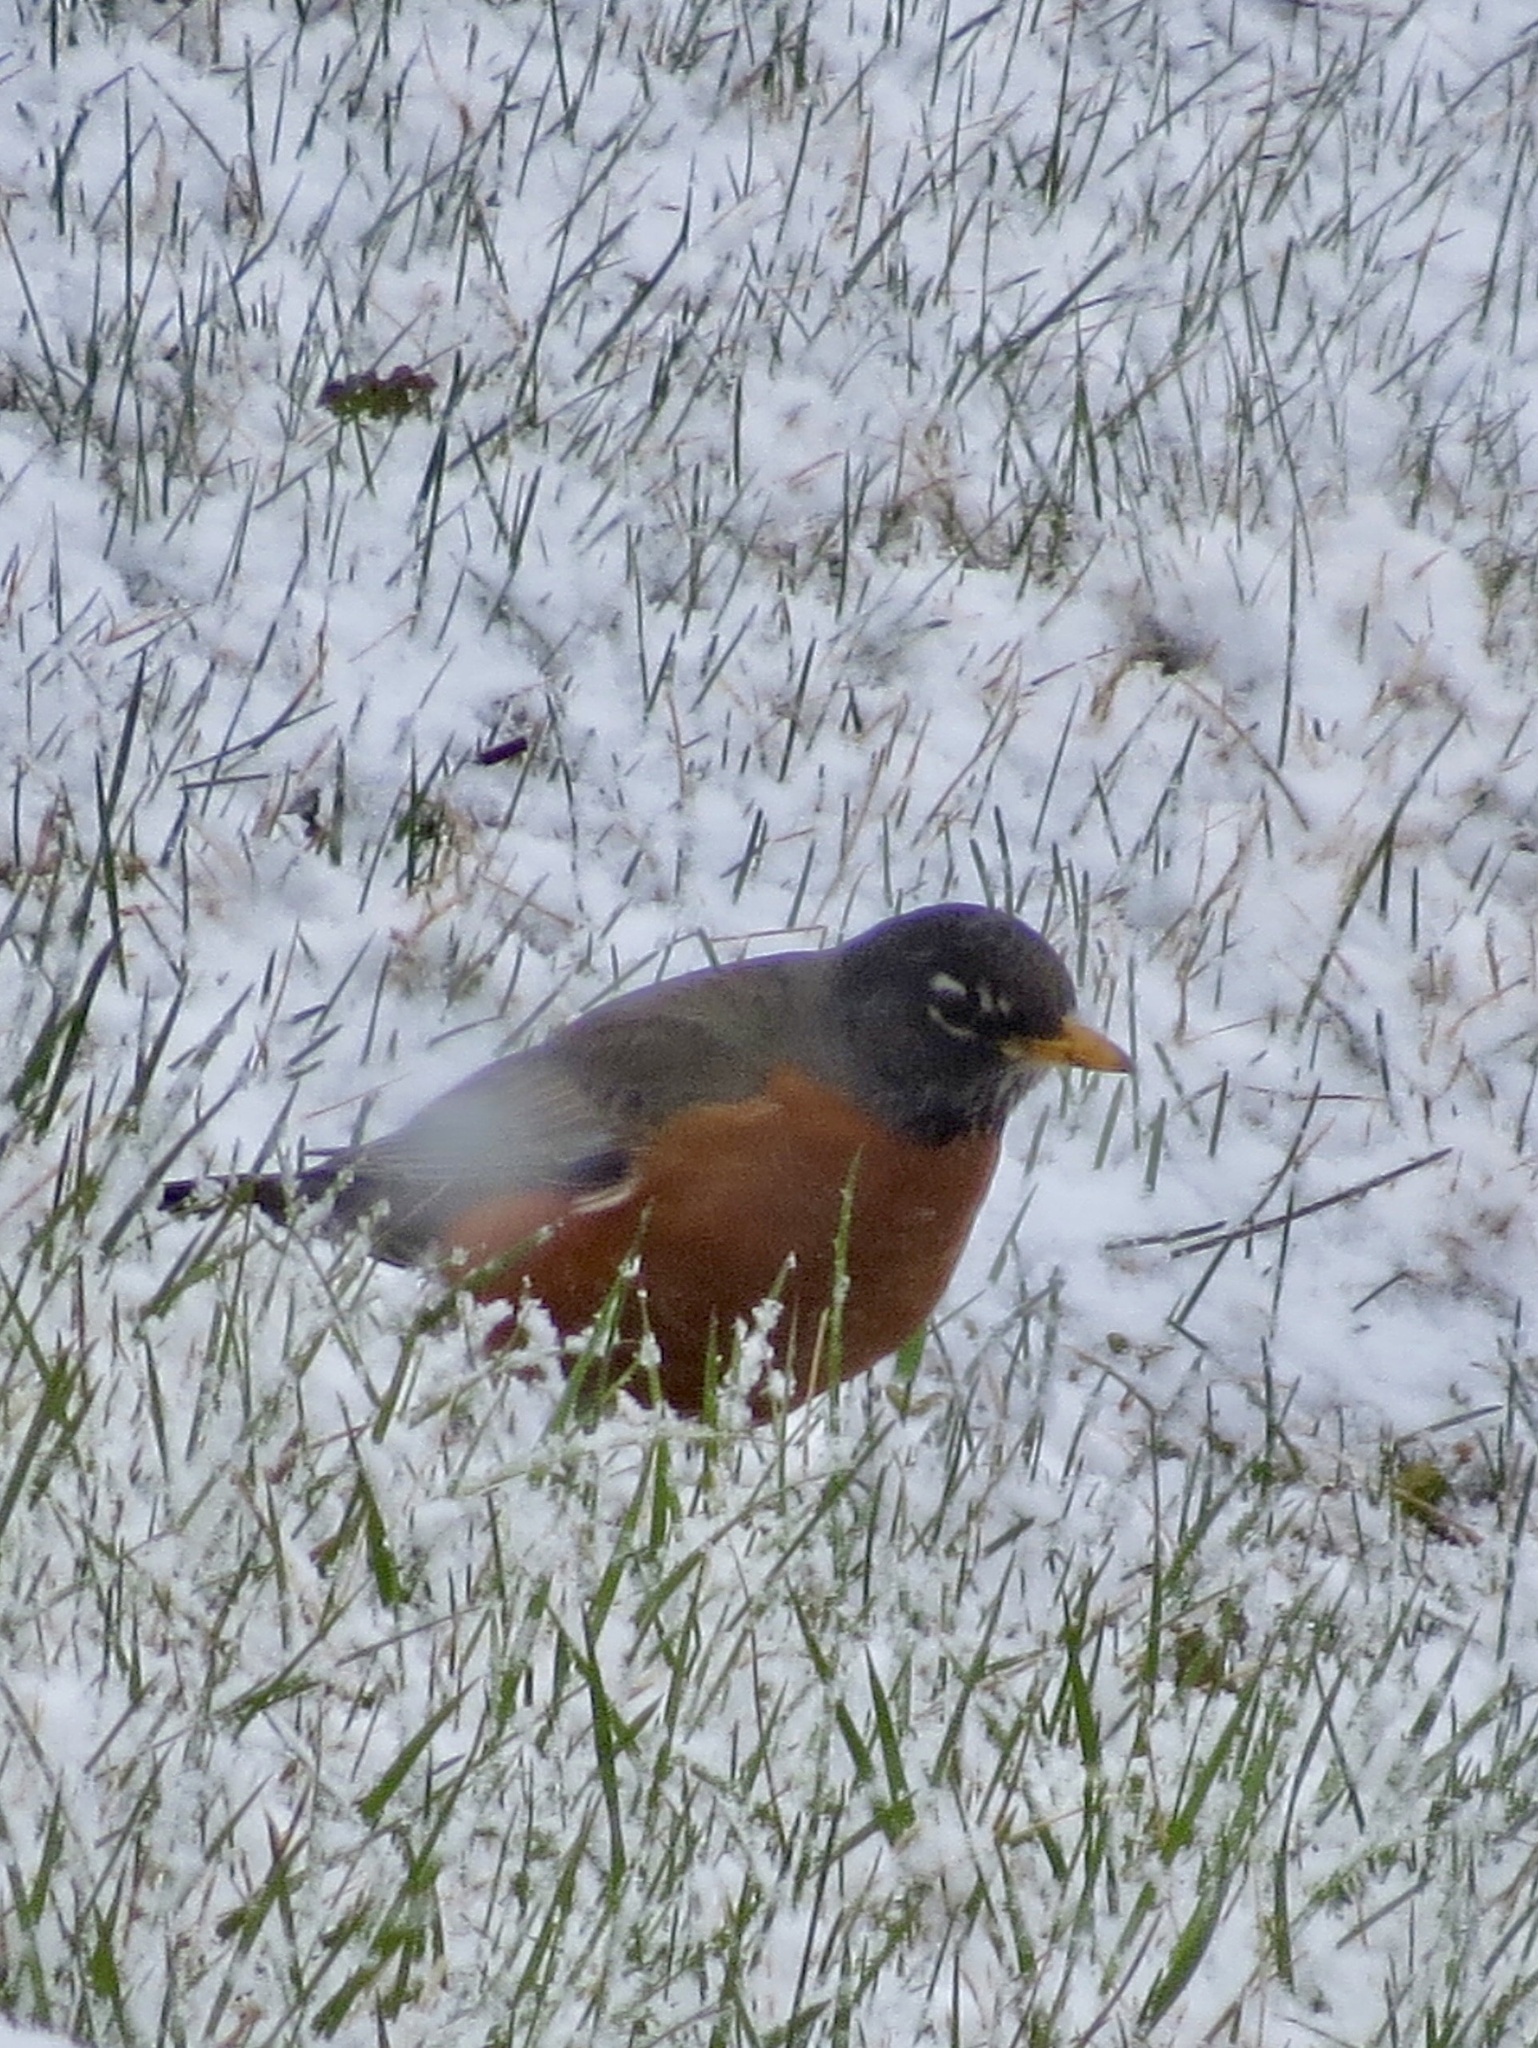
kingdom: Animalia
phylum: Chordata
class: Aves
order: Passeriformes
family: Turdidae
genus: Turdus
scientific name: Turdus migratorius
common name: American robin
